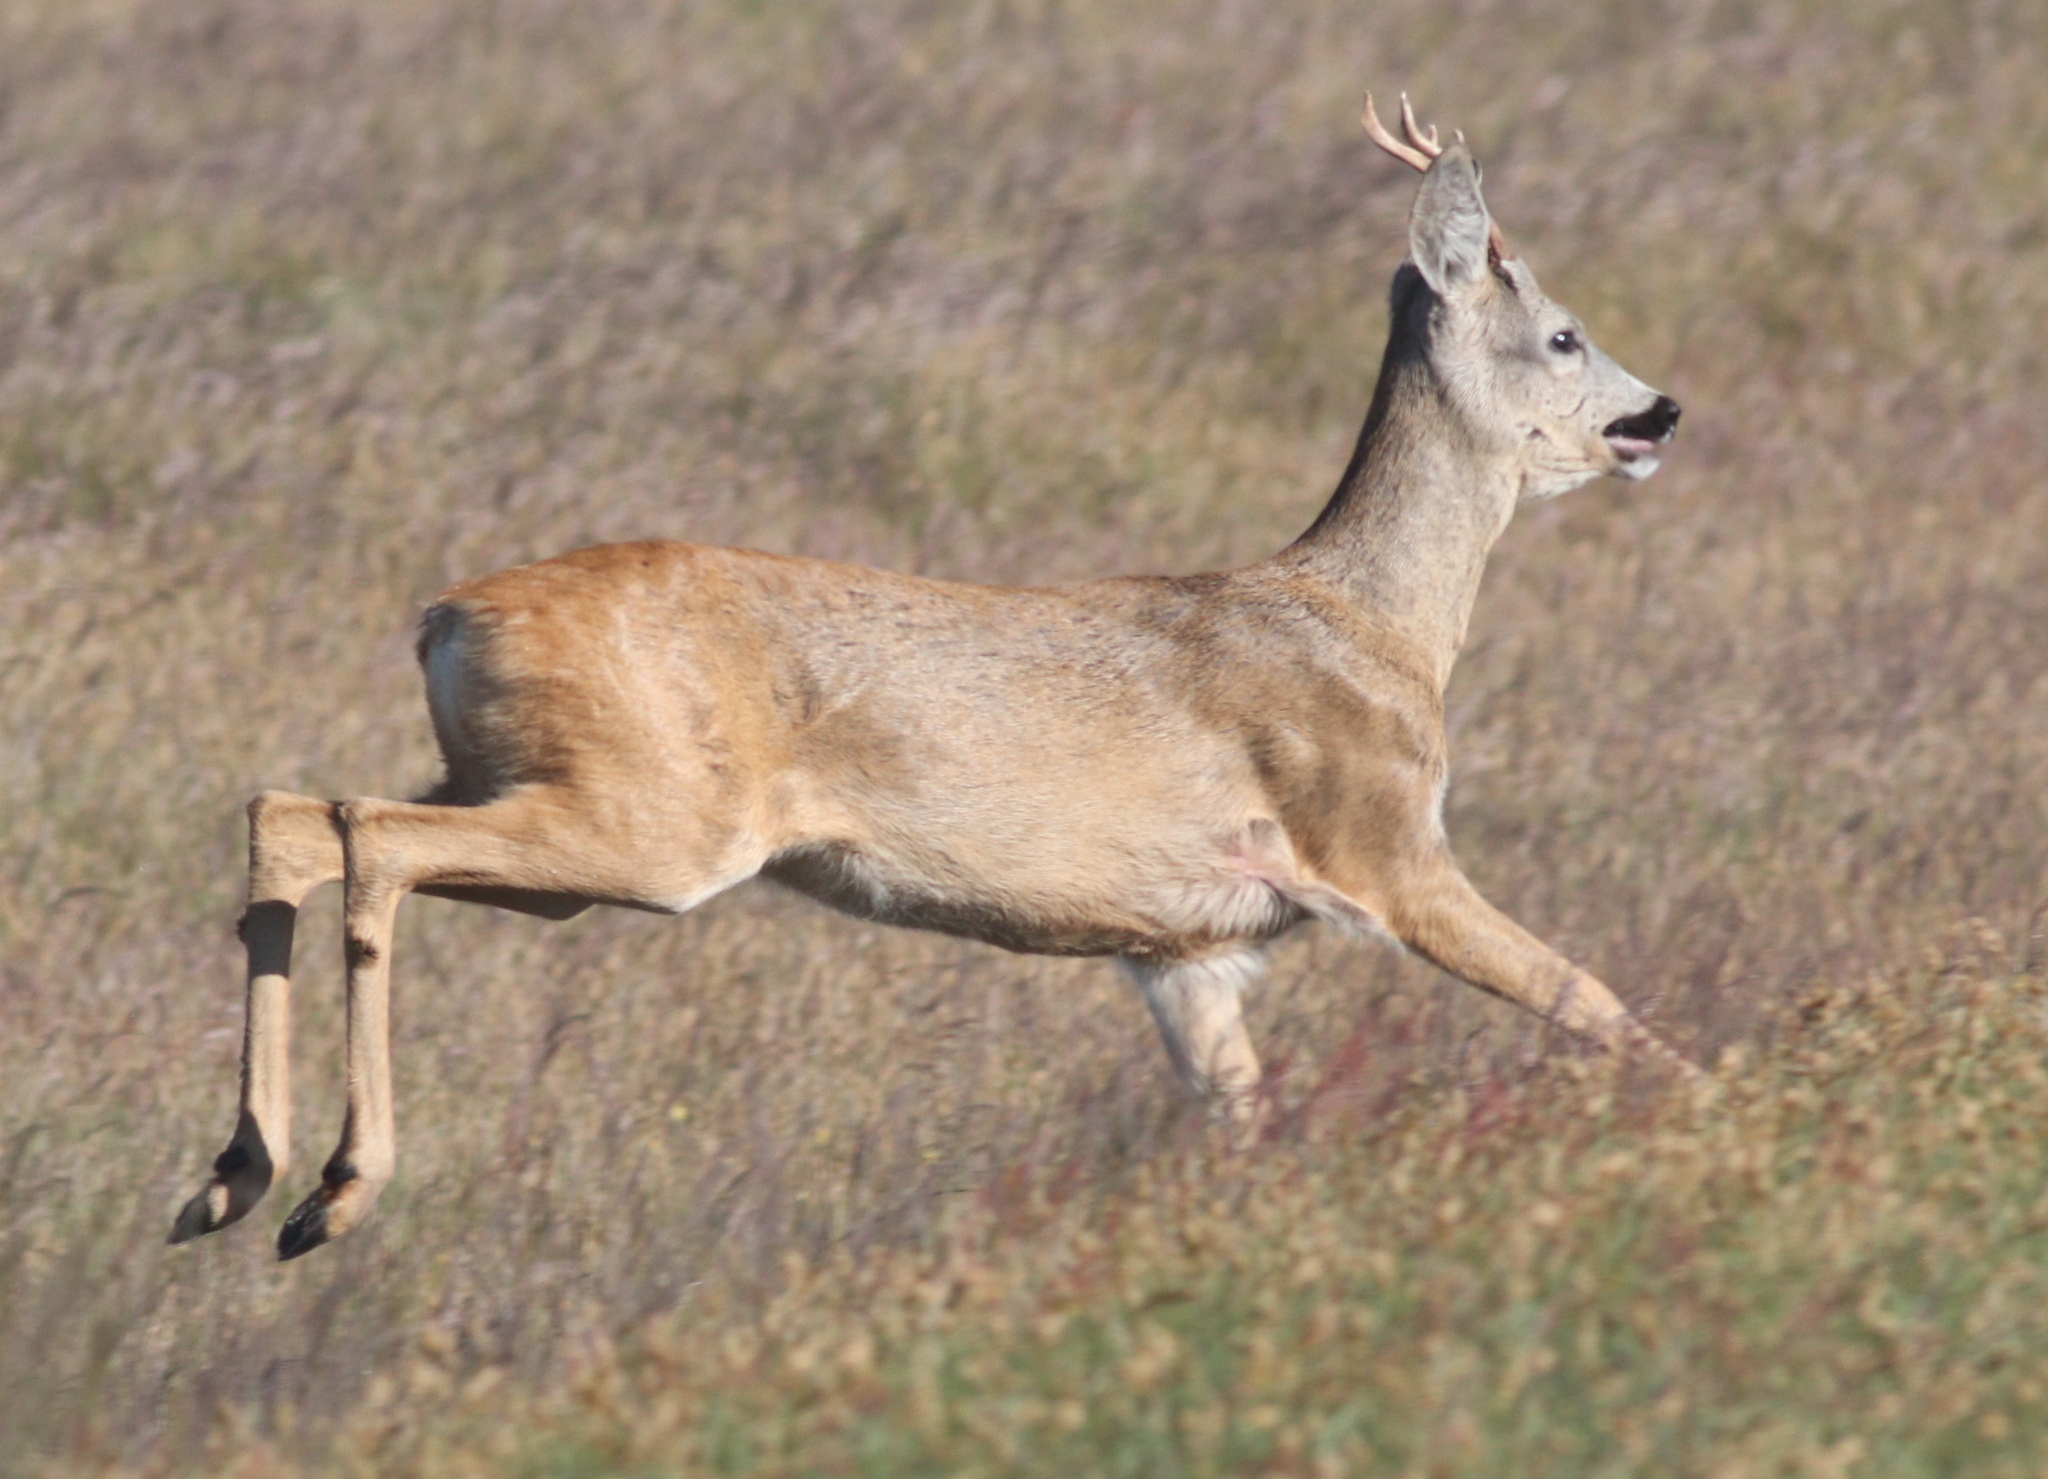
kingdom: Animalia
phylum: Chordata
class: Mammalia
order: Artiodactyla
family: Cervidae
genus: Capreolus
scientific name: Capreolus capreolus
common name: Western roe deer
